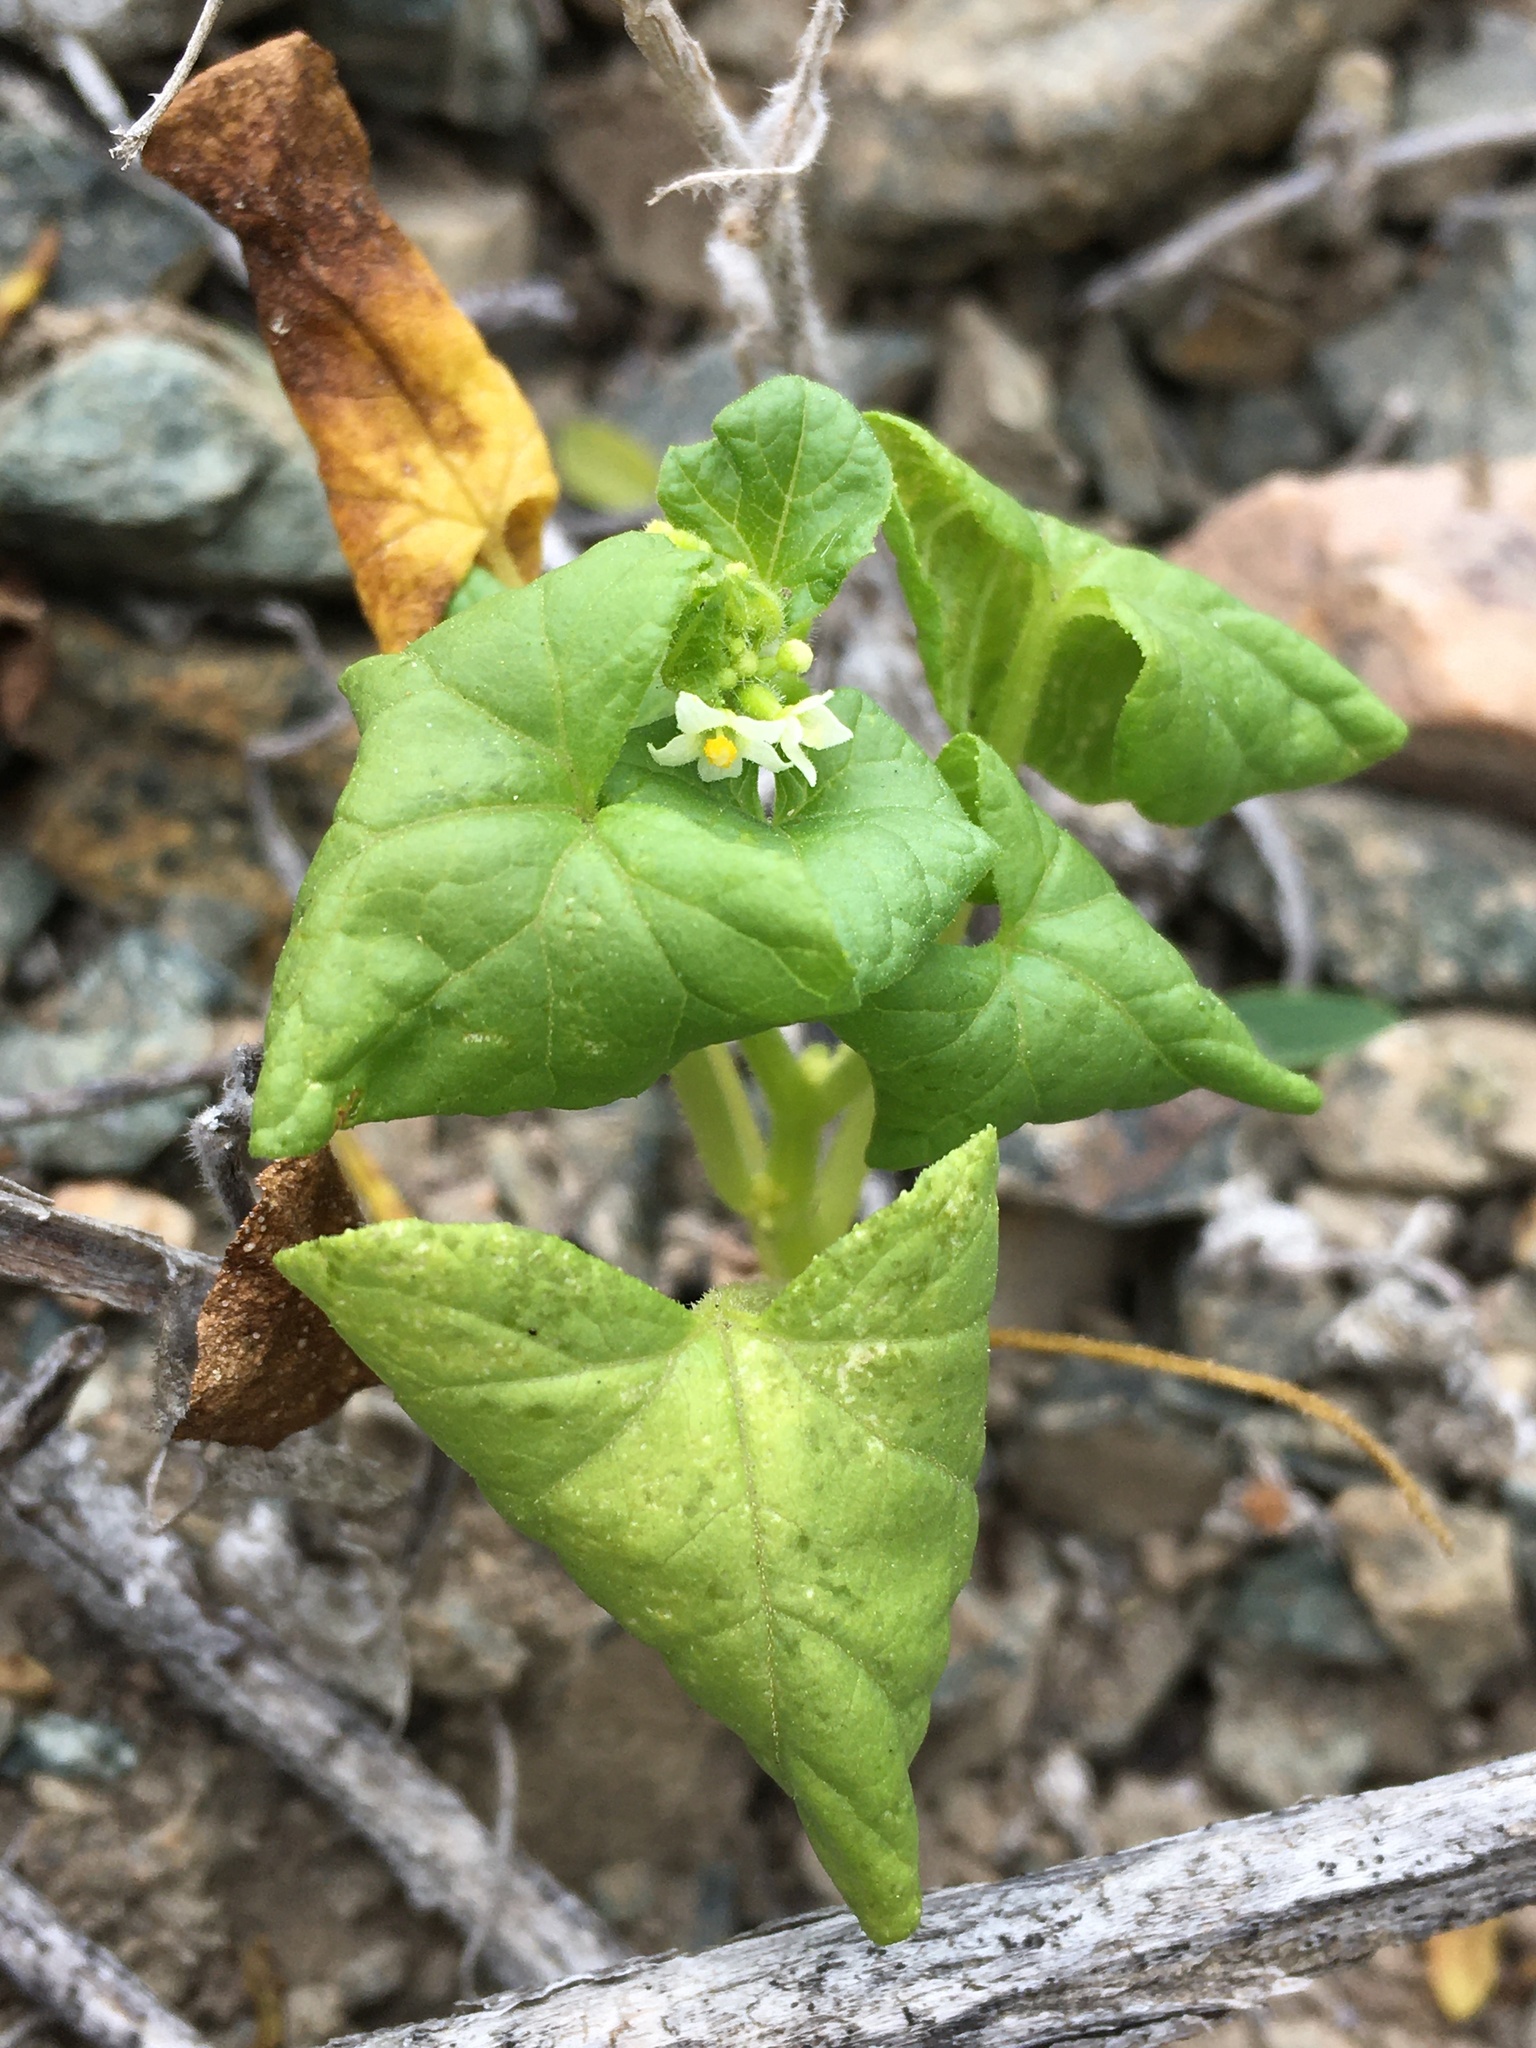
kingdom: Plantae
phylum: Tracheophyta
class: Magnoliopsida
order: Cucurbitales
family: Cucurbitaceae
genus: Sicyos
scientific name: Sicyos baderoa
